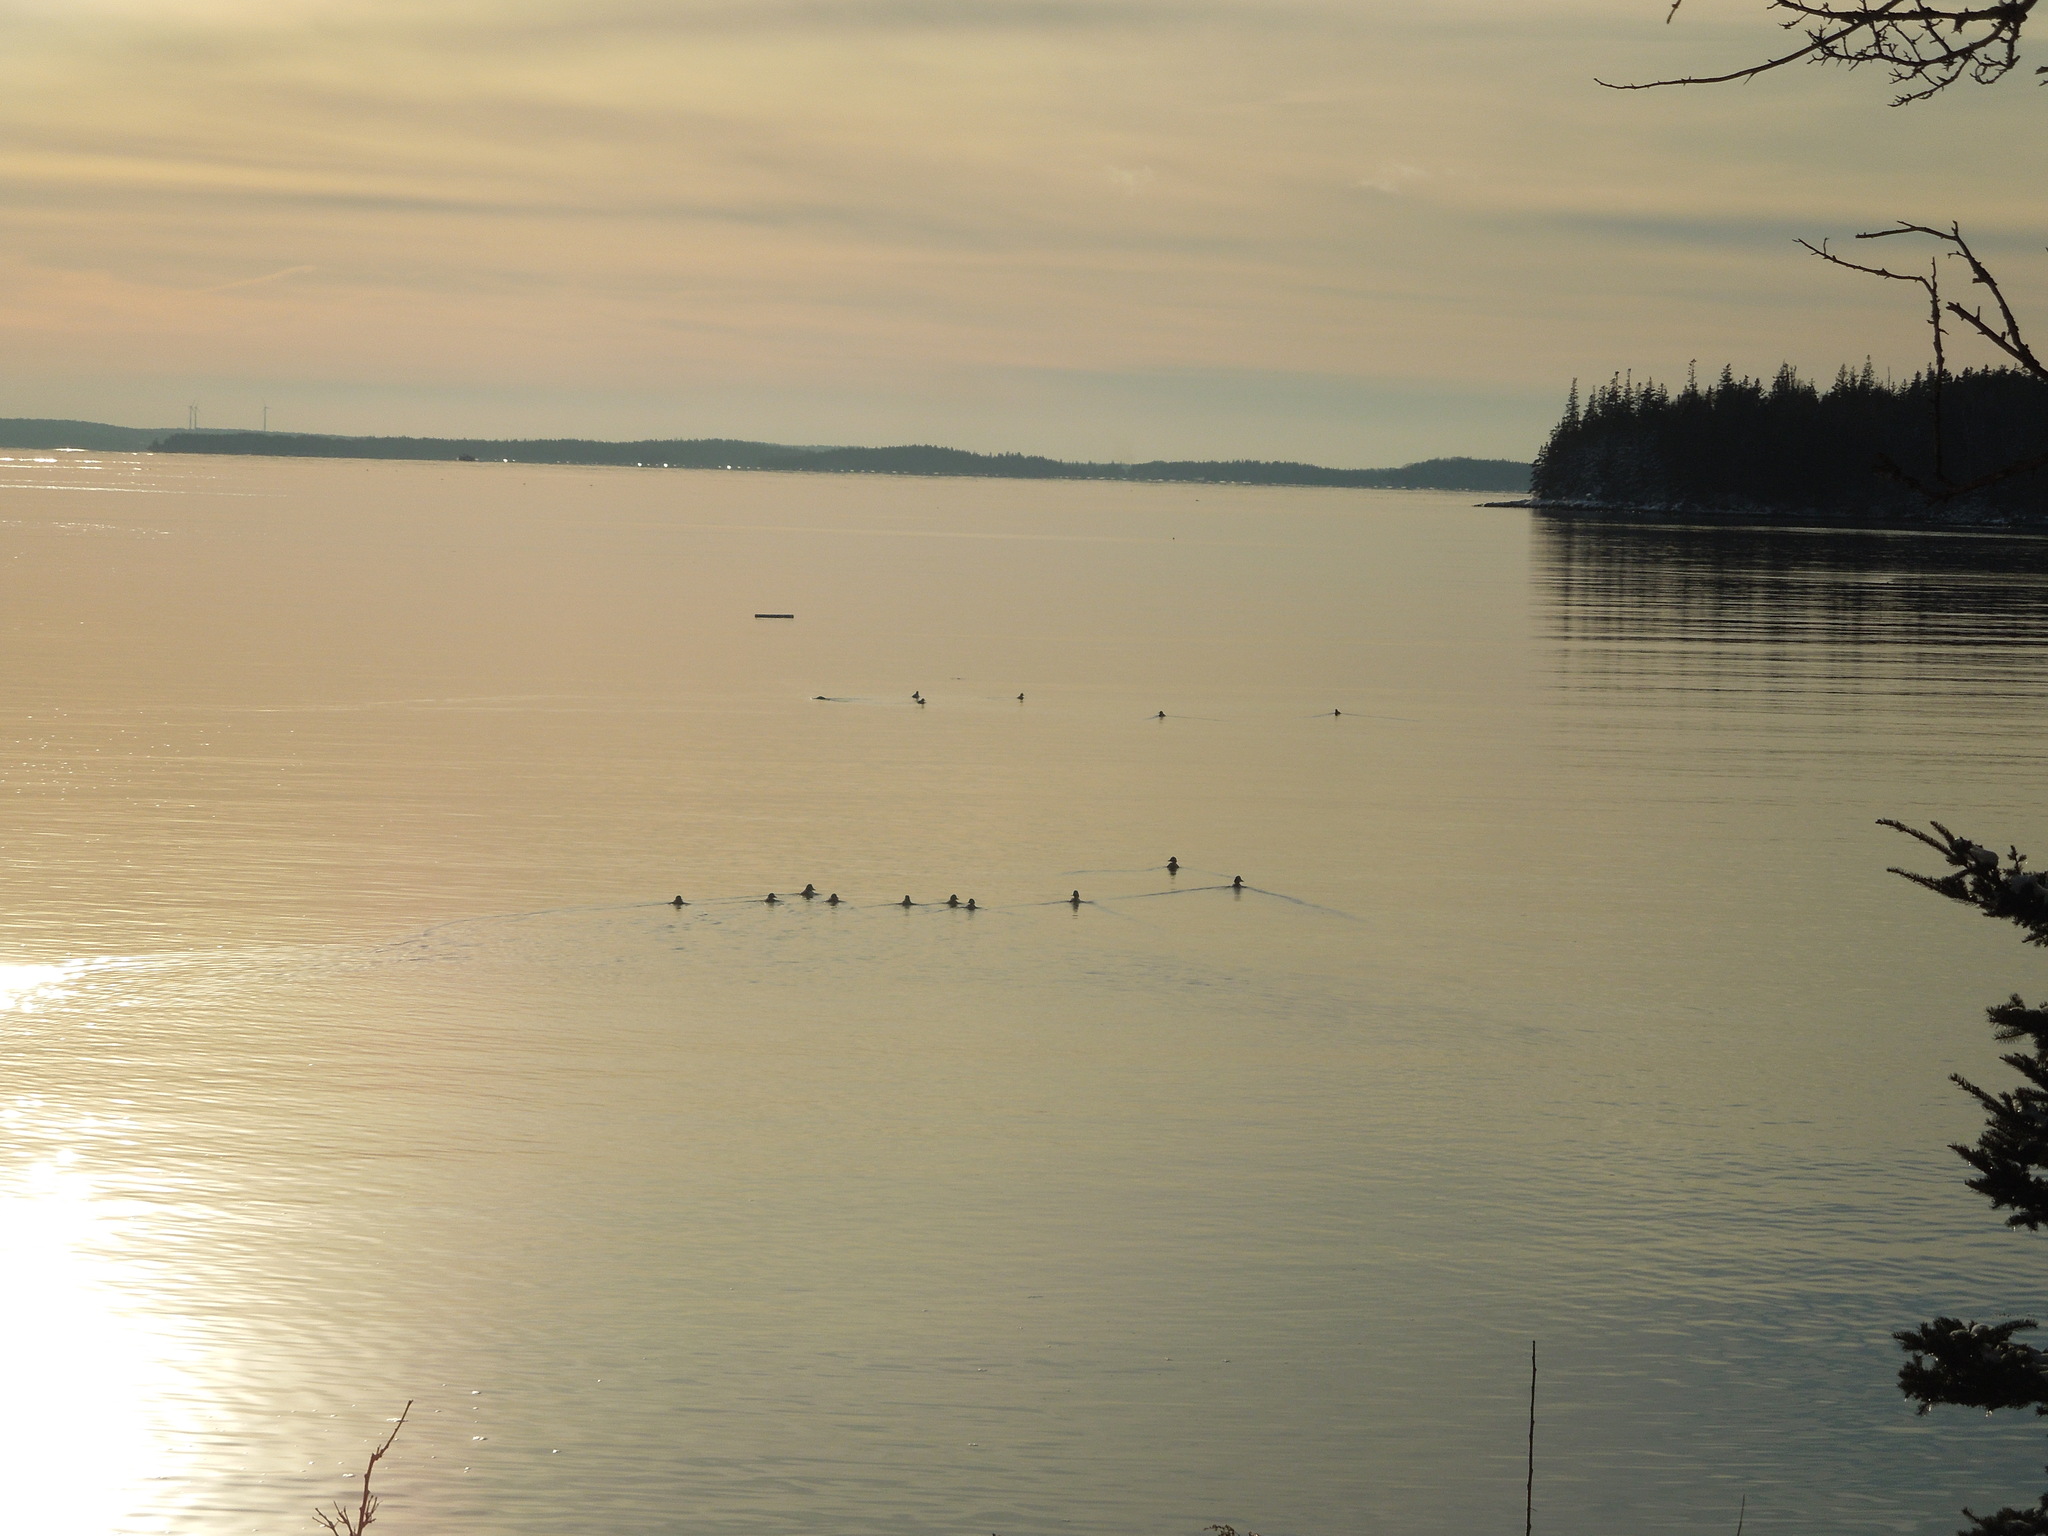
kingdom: Animalia
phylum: Chordata
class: Aves
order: Anseriformes
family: Anatidae
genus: Bucephala
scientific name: Bucephala
